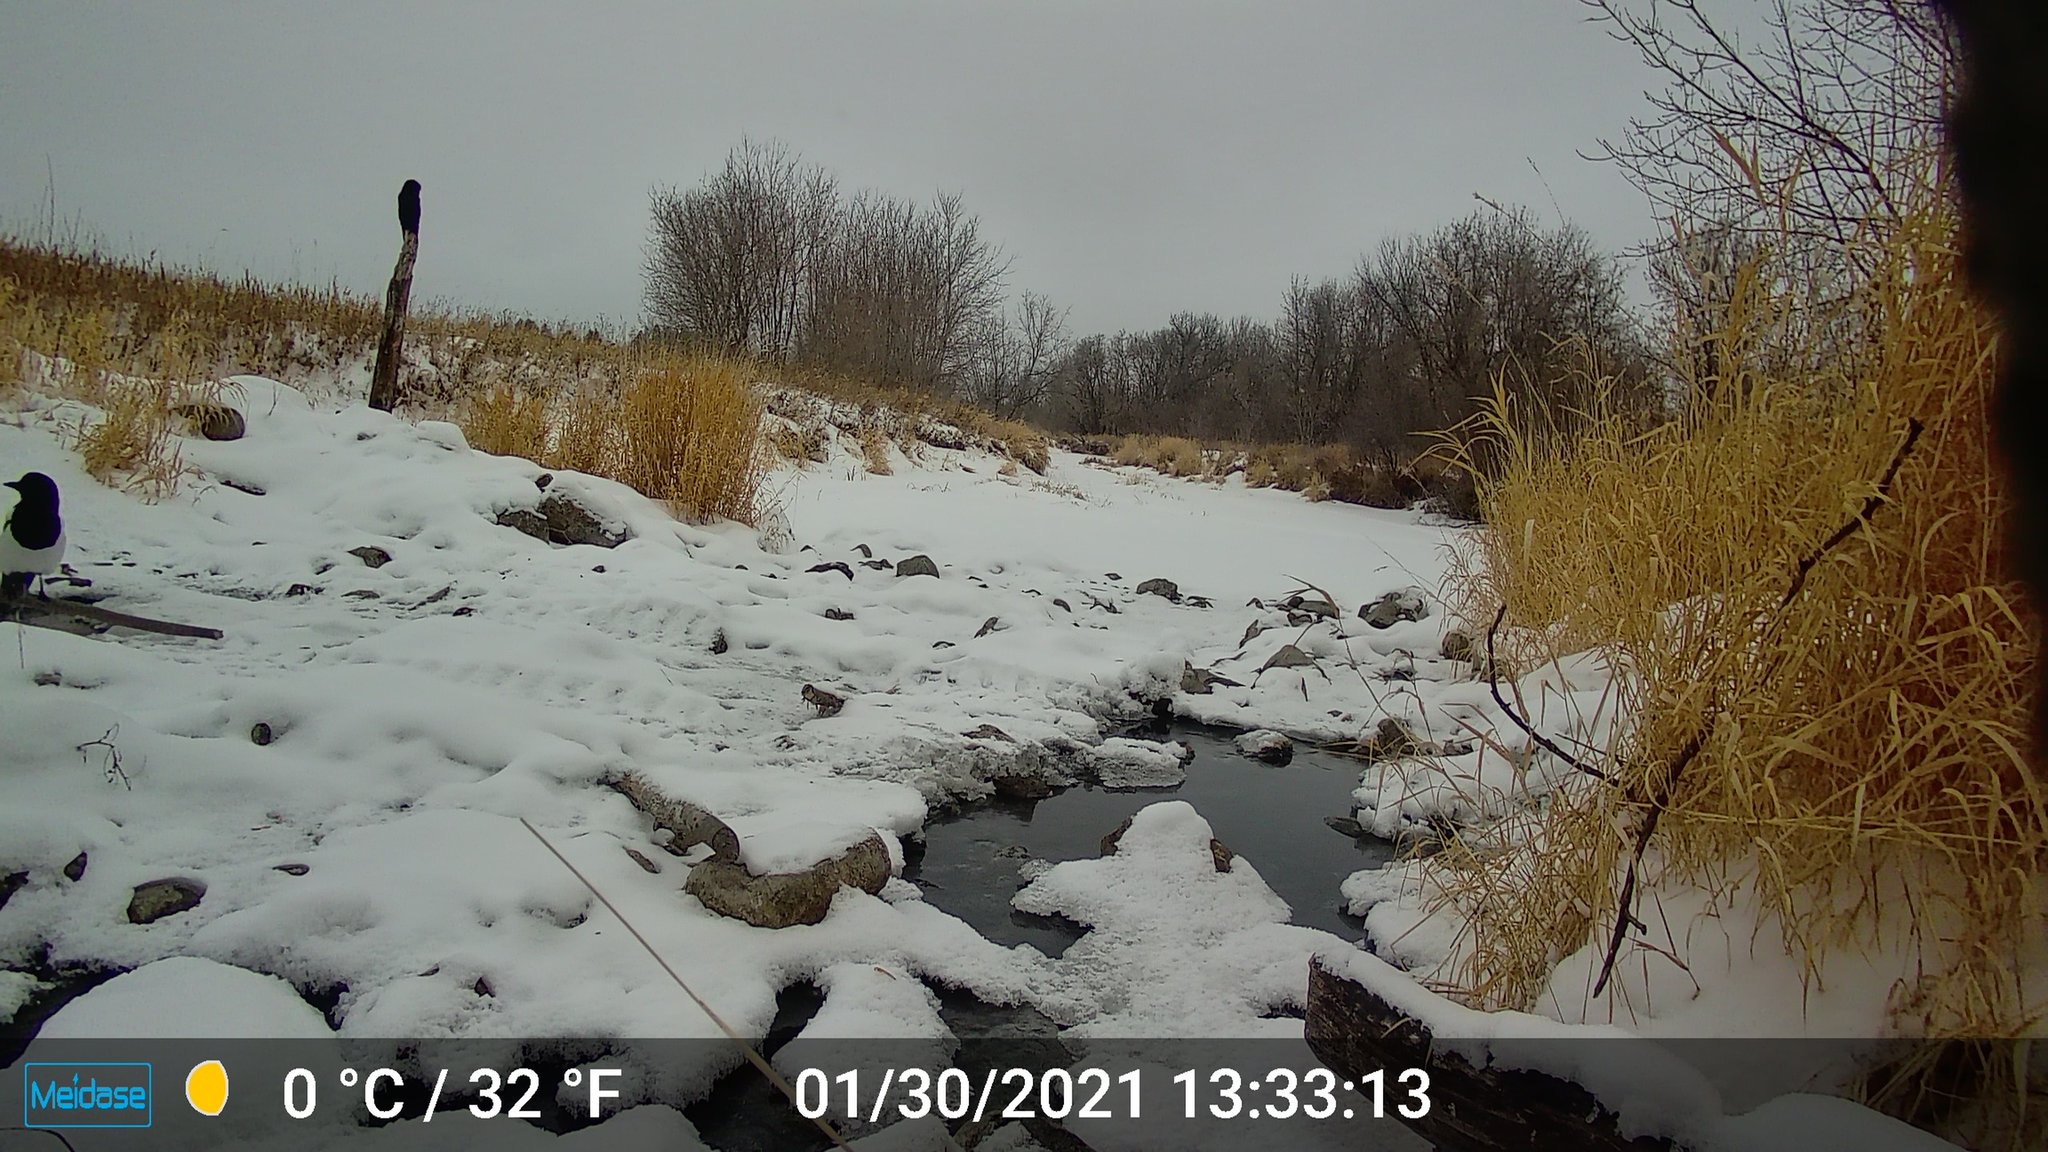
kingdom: Animalia
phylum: Chordata
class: Aves
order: Passeriformes
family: Corvidae
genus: Pica
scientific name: Pica hudsonia
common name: Black-billed magpie
